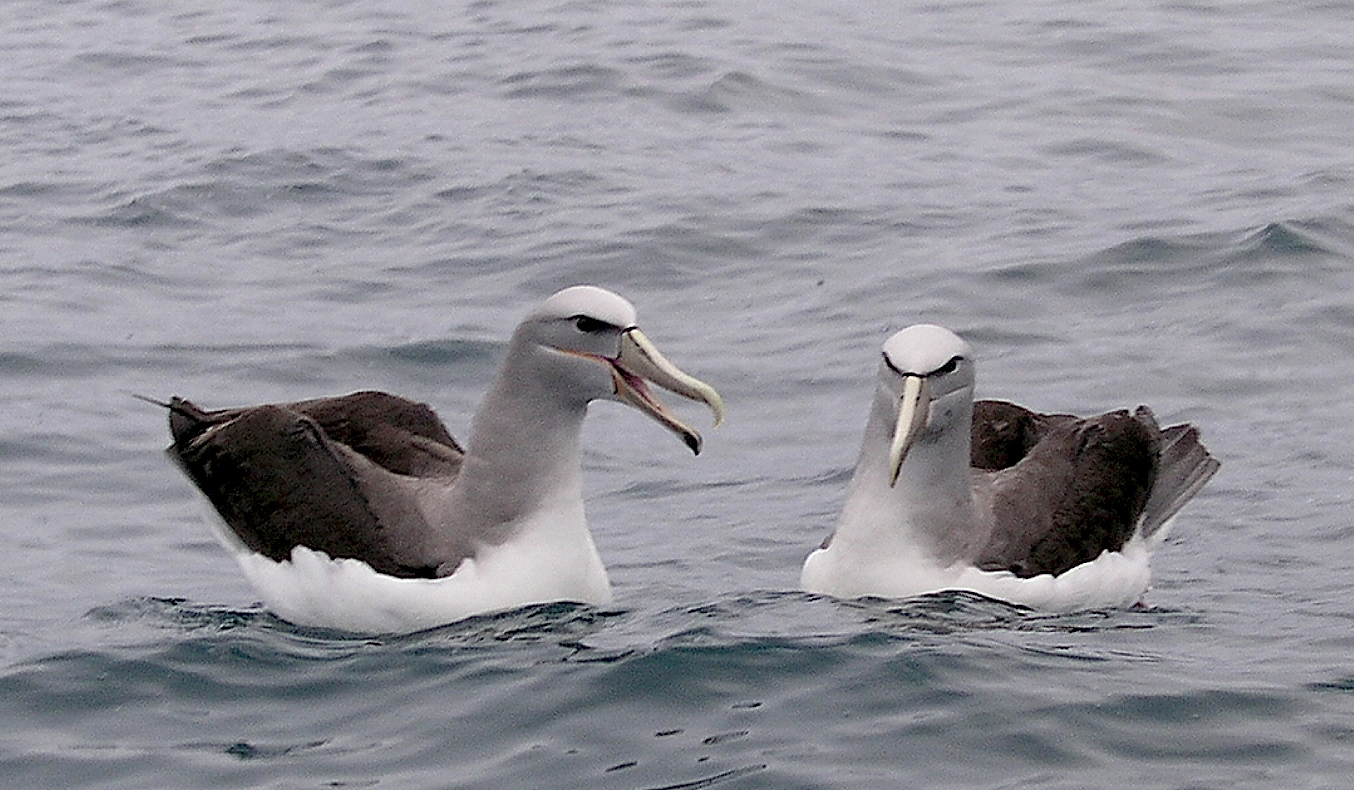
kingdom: Animalia
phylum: Chordata
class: Aves
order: Procellariiformes
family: Diomedeidae
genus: Thalassarche
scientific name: Thalassarche salvini
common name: Salvin's albatross
